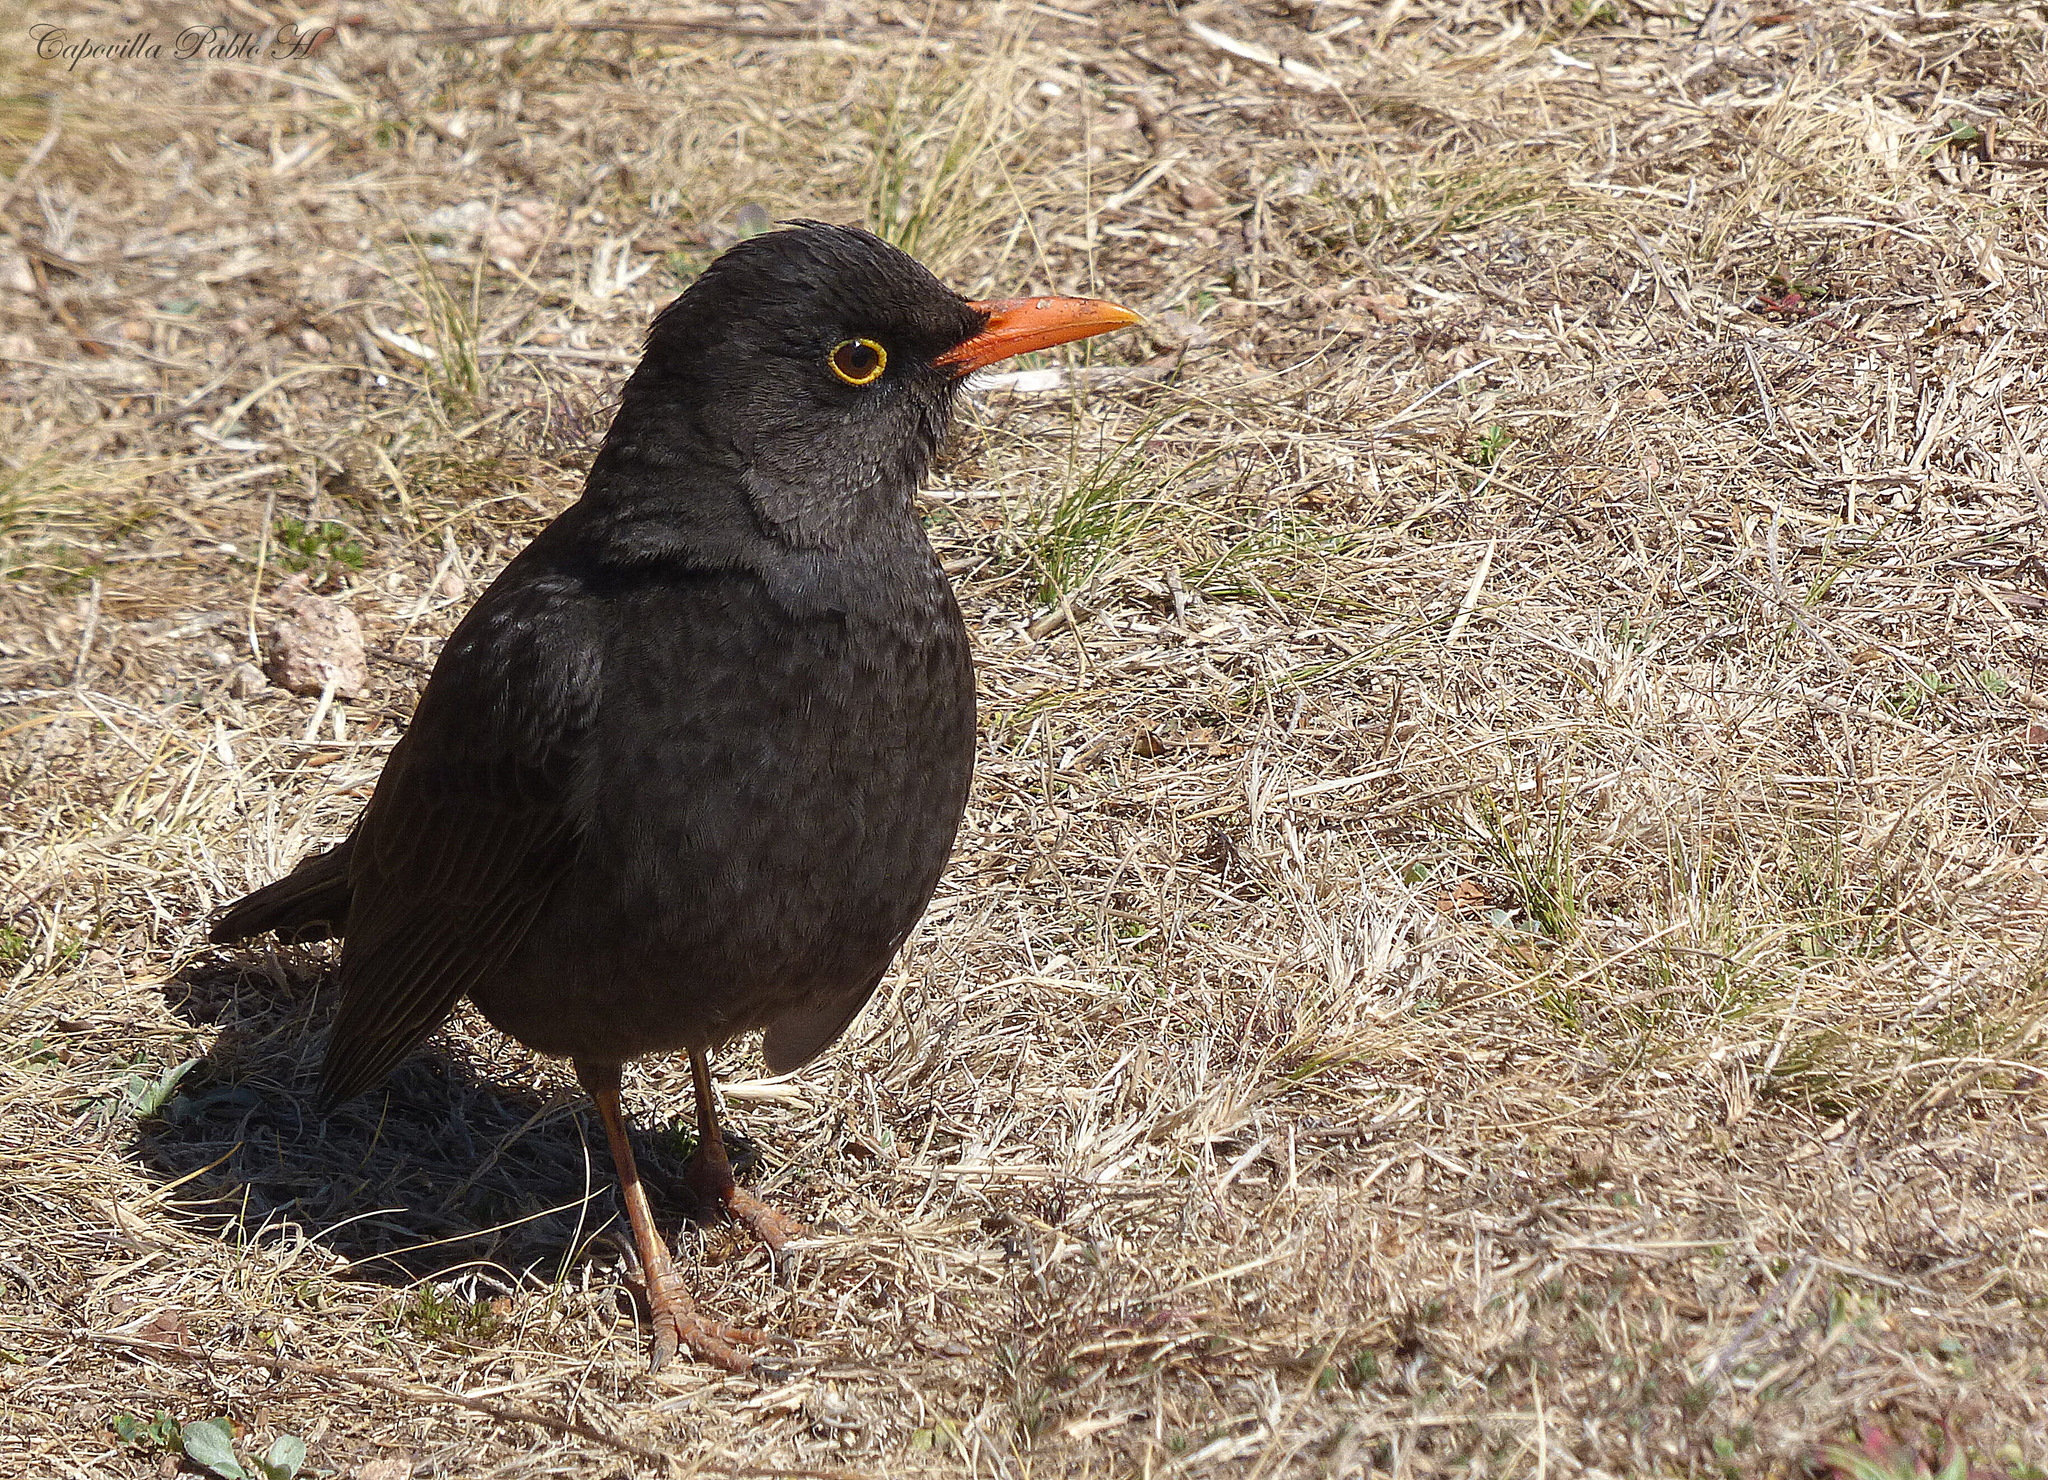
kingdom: Animalia
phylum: Chordata
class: Aves
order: Passeriformes
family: Turdidae
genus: Turdus
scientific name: Turdus chiguanco
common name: Chiguanco thrush
